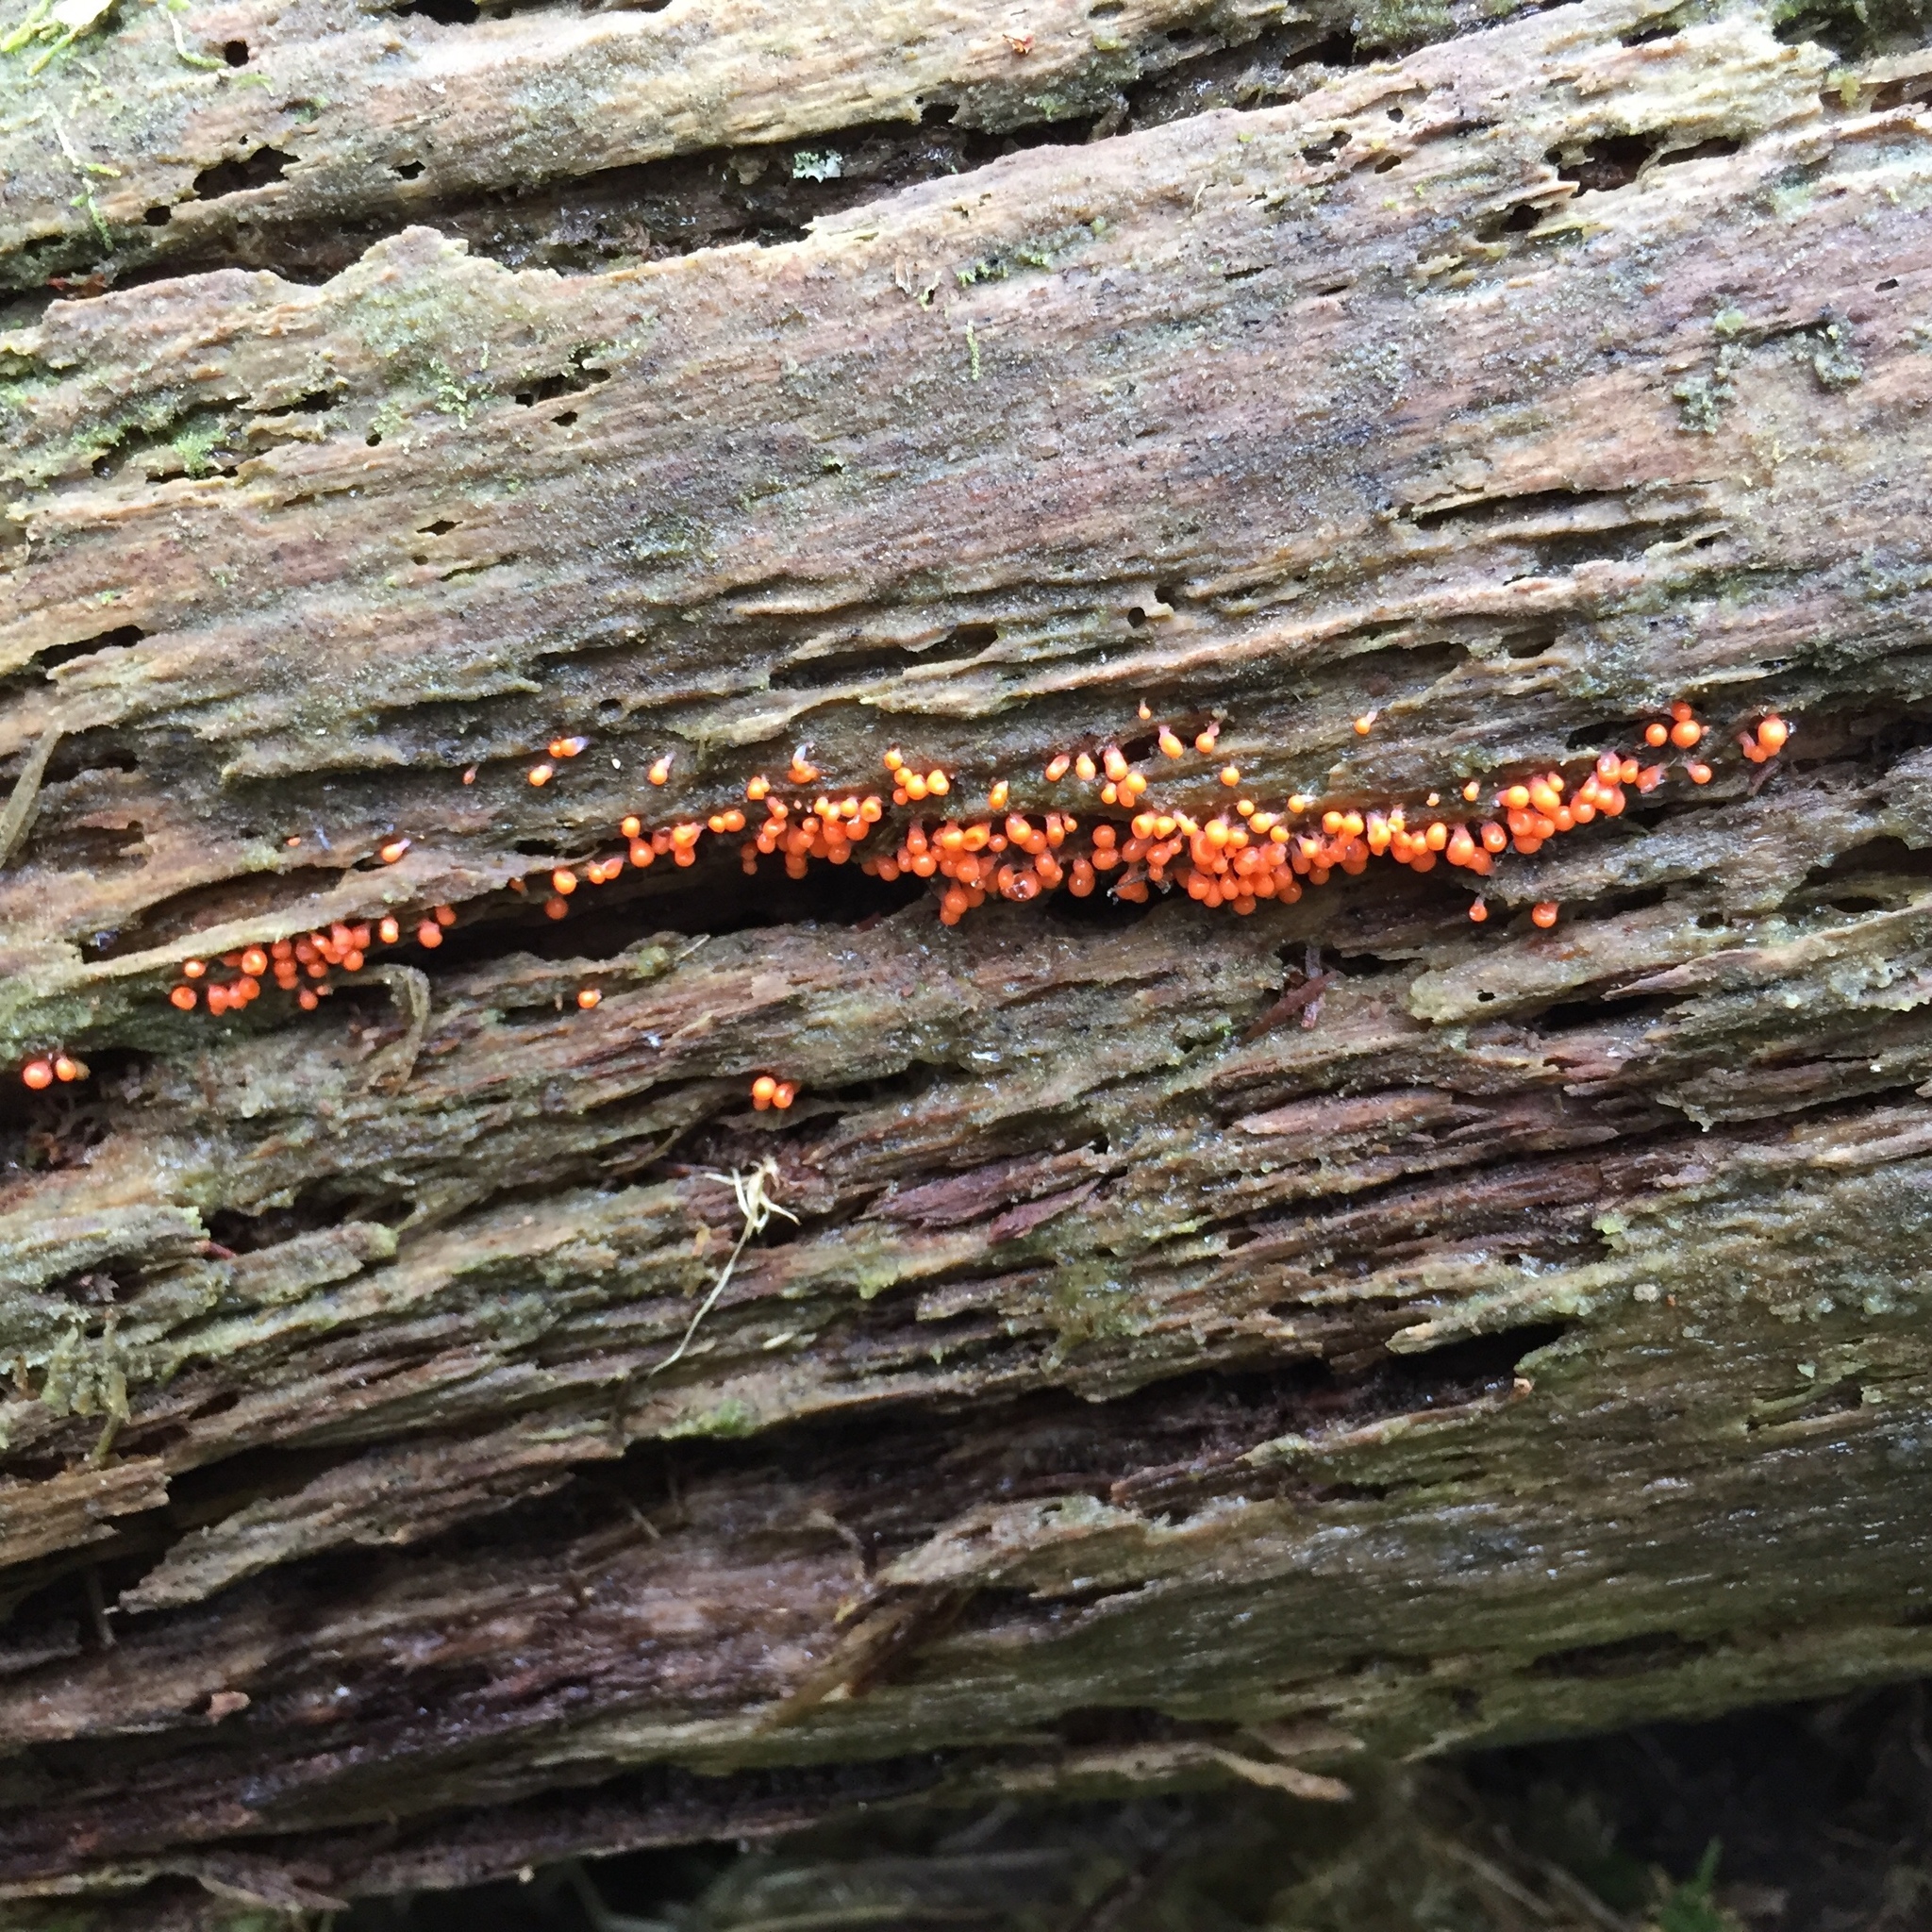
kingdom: Protozoa
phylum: Mycetozoa
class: Myxomycetes
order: Trichiales
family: Arcyriaceae
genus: Hemitrichia
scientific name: Hemitrichia decipiens
